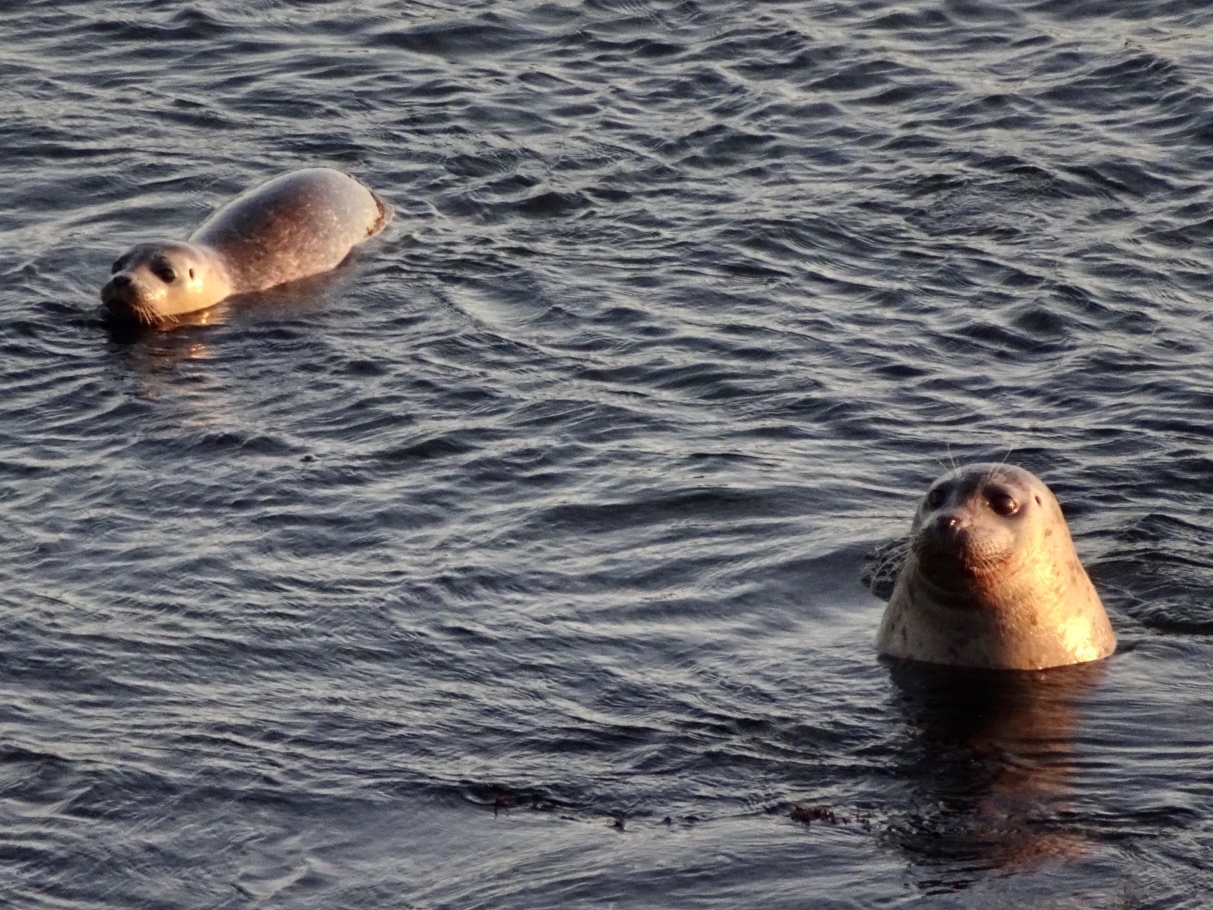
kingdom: Animalia
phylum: Chordata
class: Mammalia
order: Carnivora
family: Phocidae
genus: Phoca
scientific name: Phoca vitulina
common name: Harbor seal
